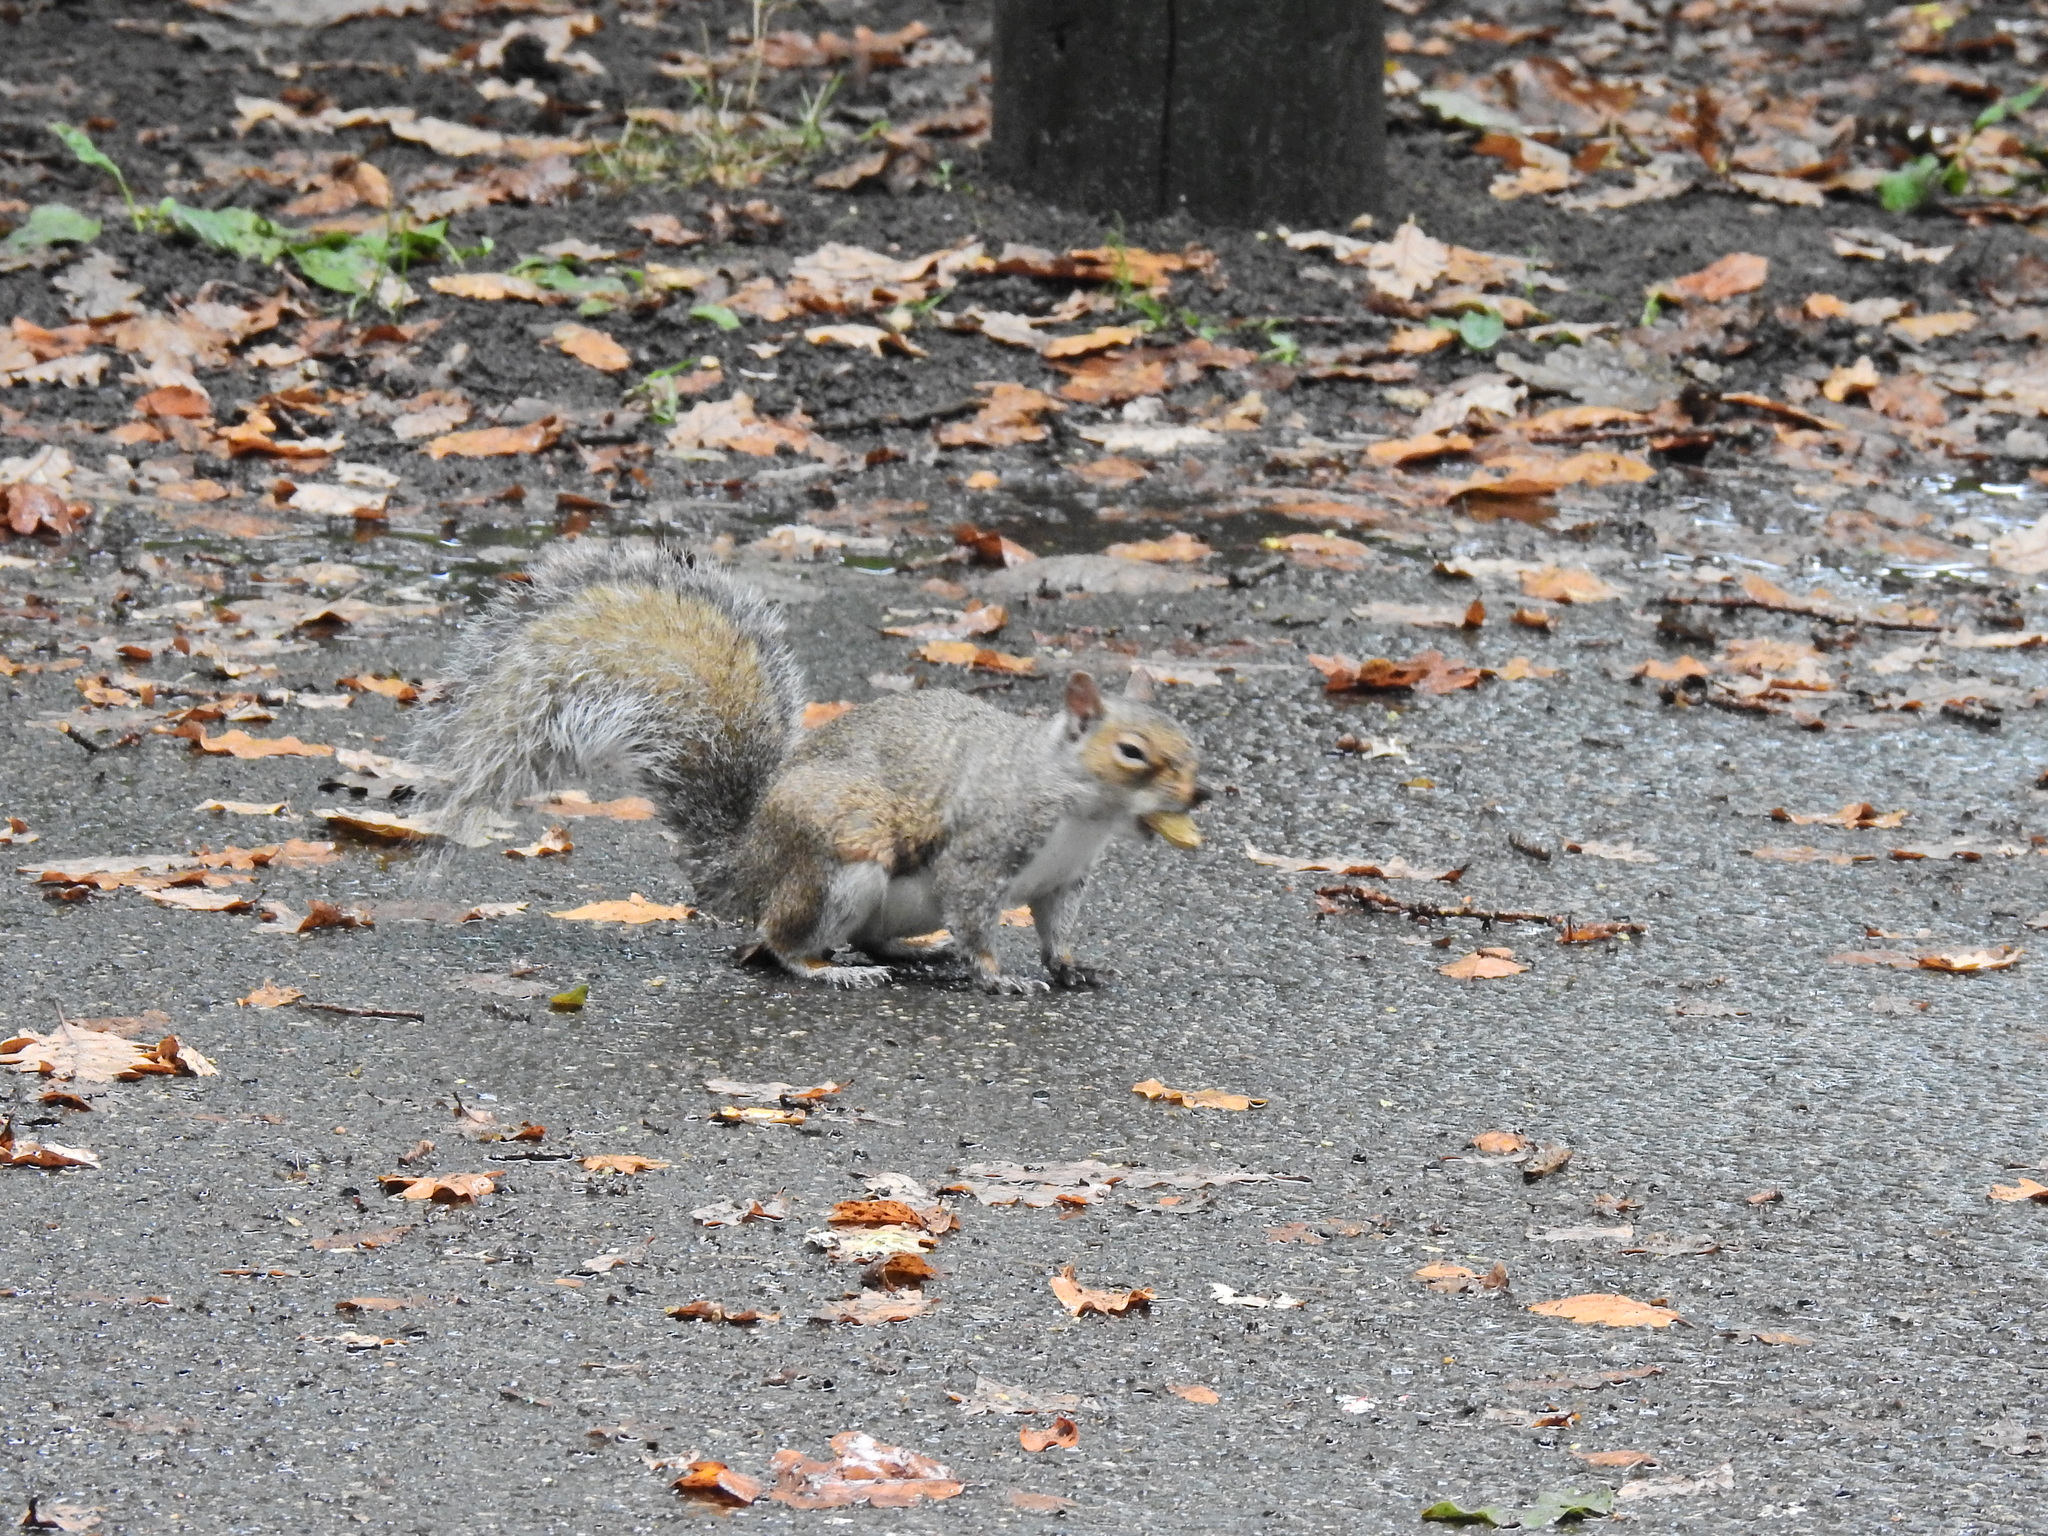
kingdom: Animalia
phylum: Chordata
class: Mammalia
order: Rodentia
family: Sciuridae
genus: Sciurus
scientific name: Sciurus carolinensis
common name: Eastern gray squirrel
